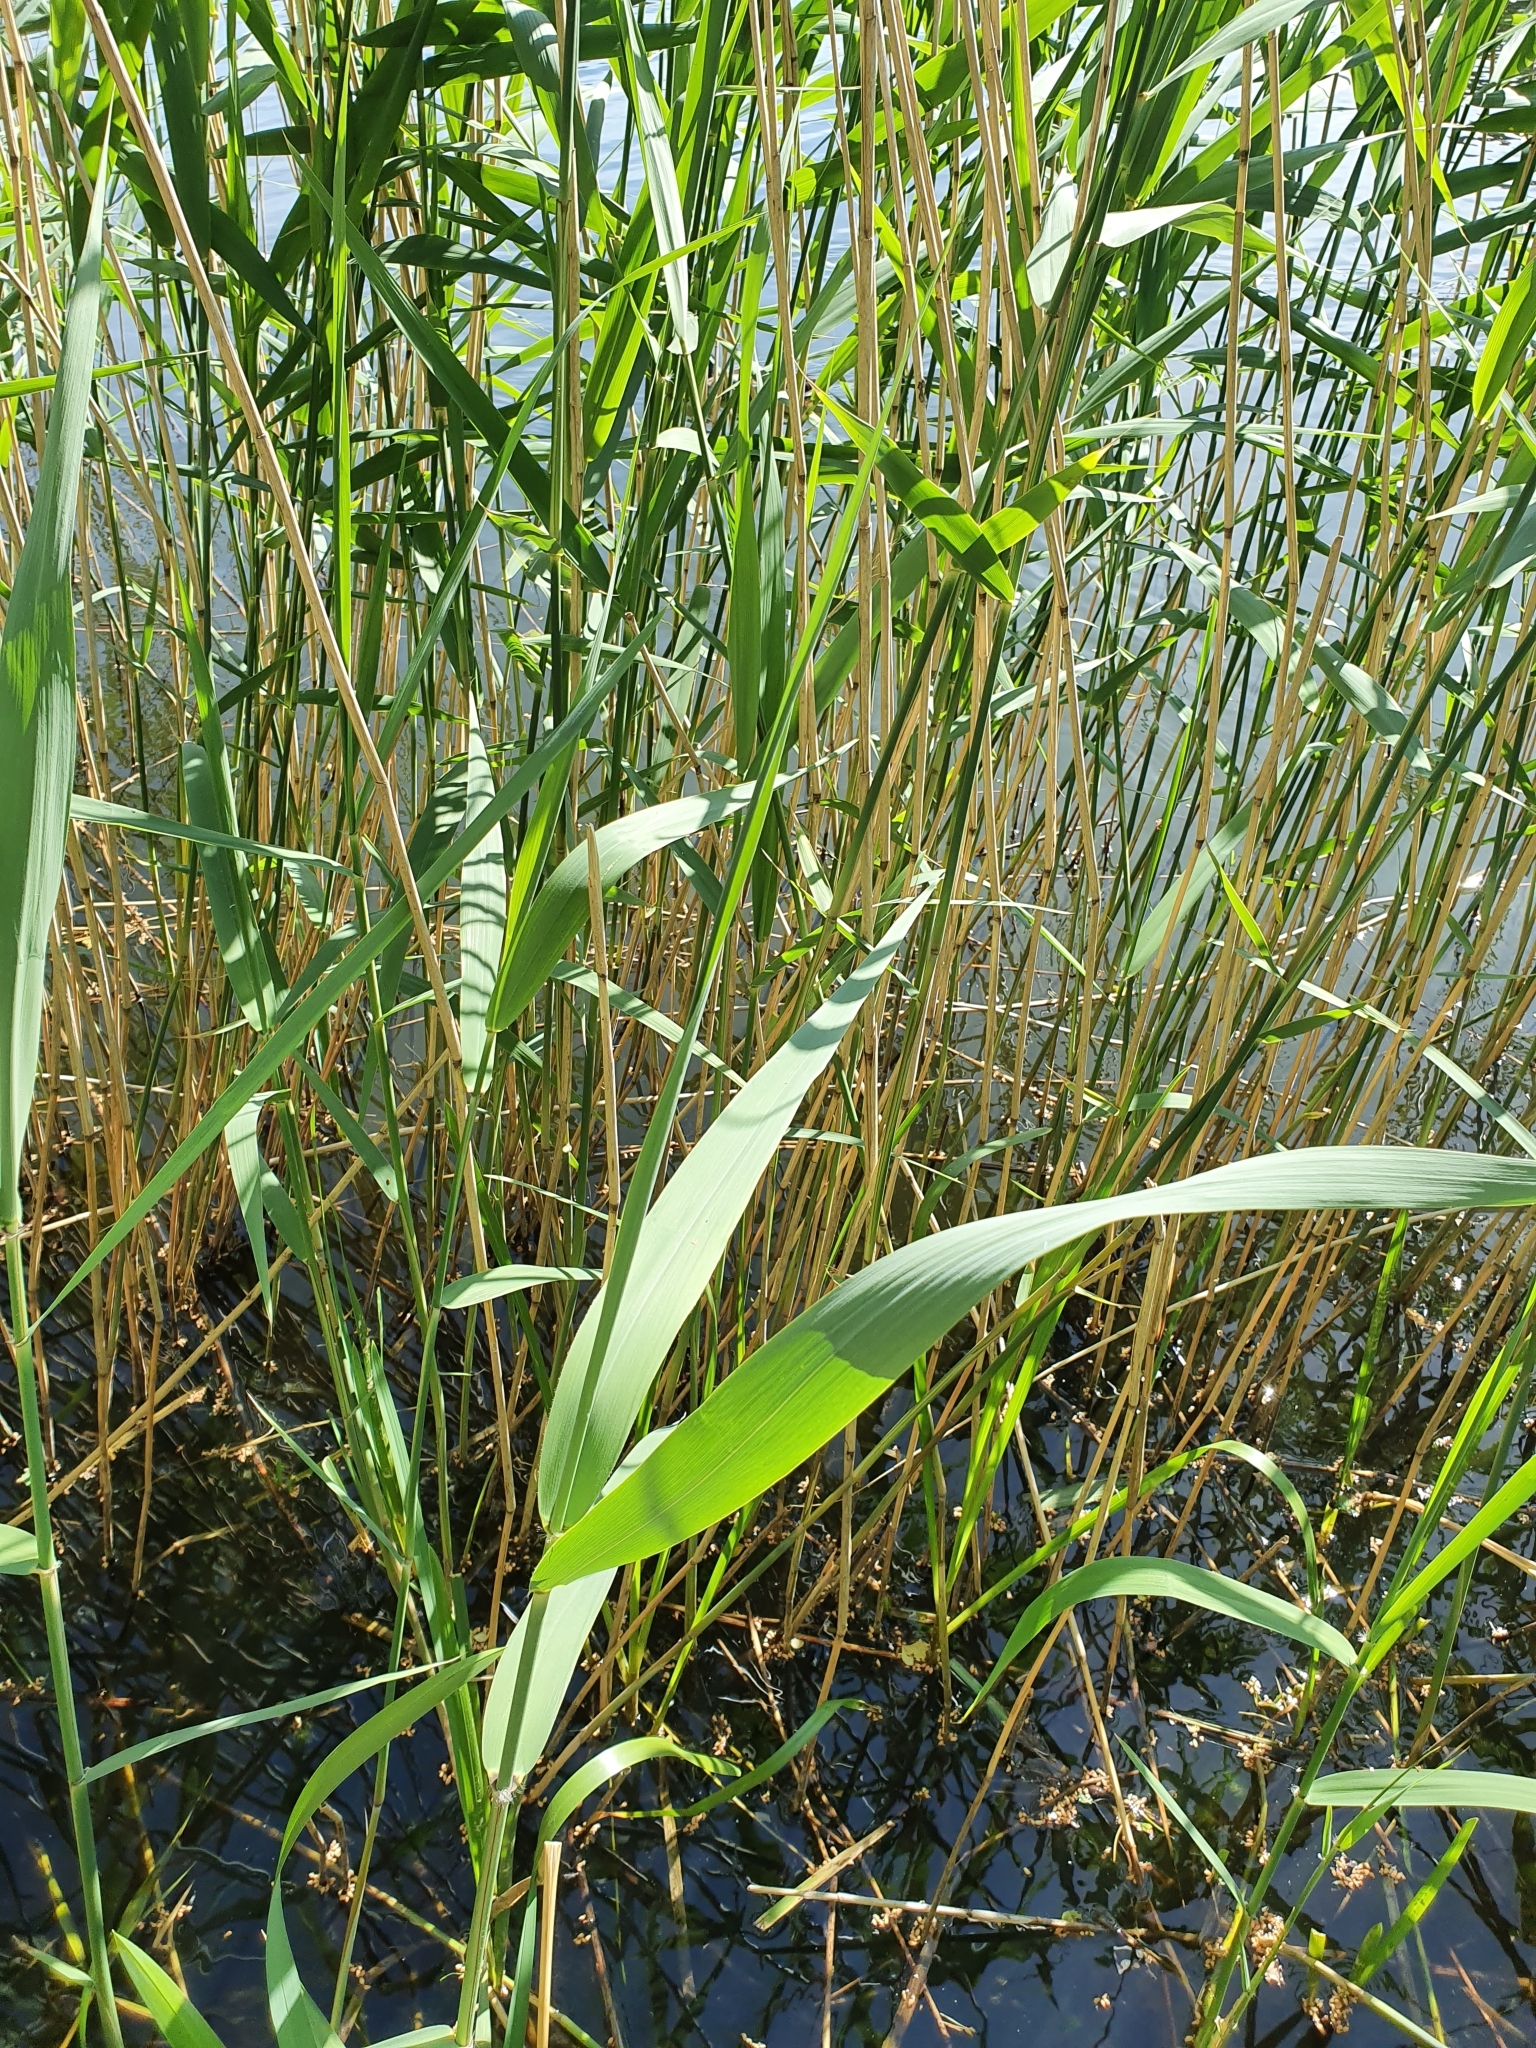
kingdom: Plantae
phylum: Tracheophyta
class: Liliopsida
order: Poales
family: Poaceae
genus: Phragmites
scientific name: Phragmites australis
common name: Common reed
